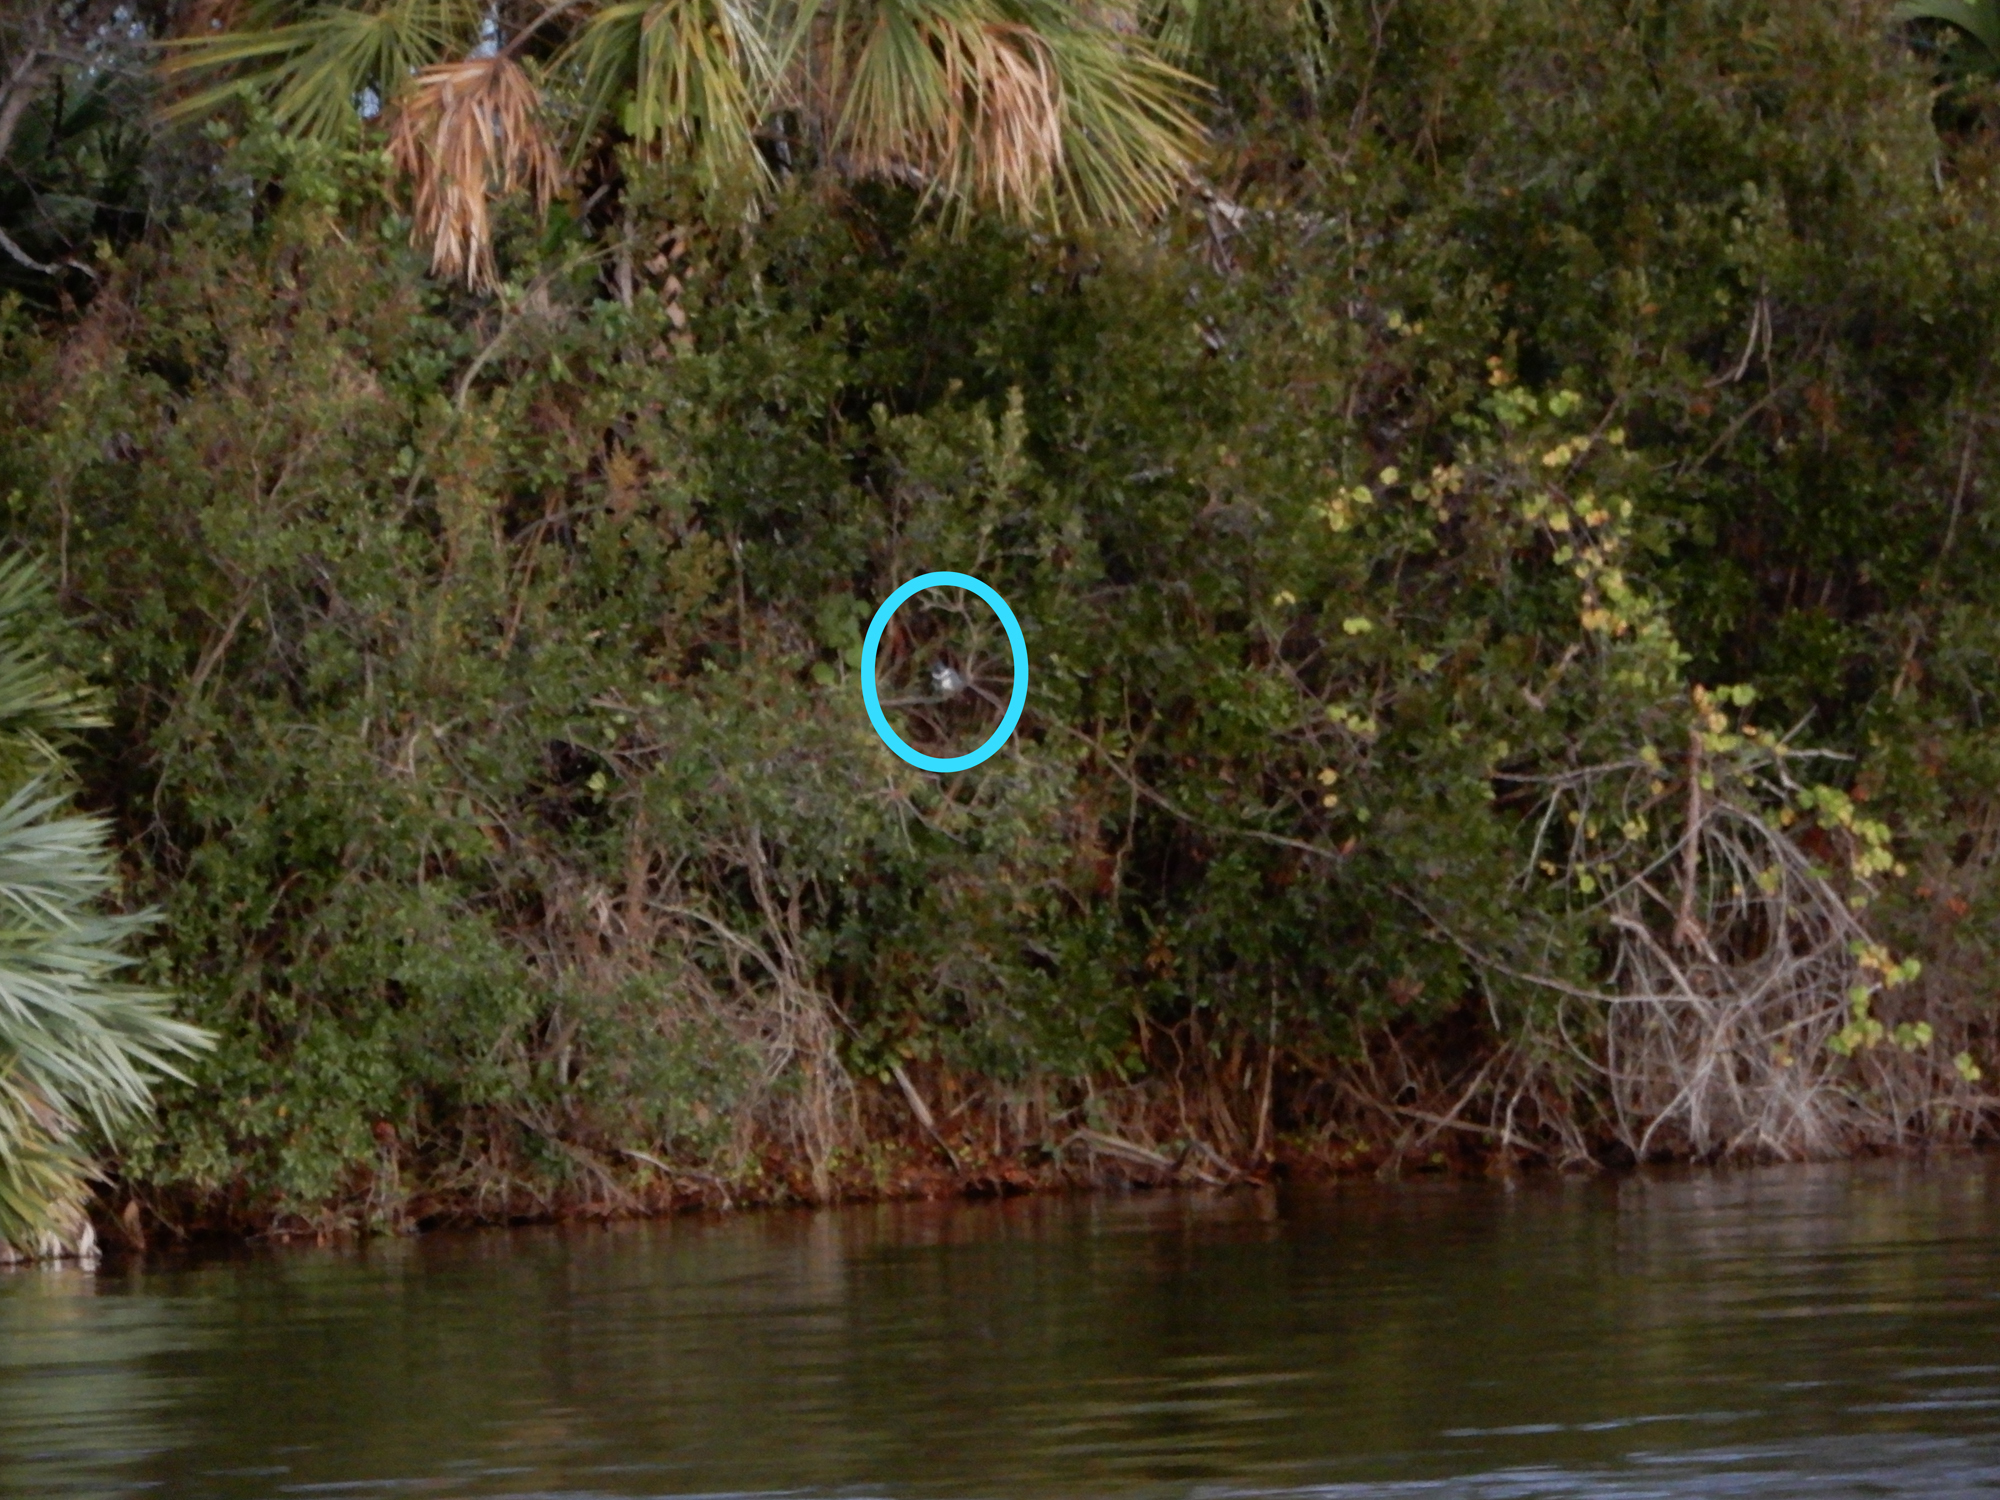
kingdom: Animalia
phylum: Chordata
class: Aves
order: Coraciiformes
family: Alcedinidae
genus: Megaceryle
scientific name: Megaceryle alcyon
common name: Belted kingfisher
